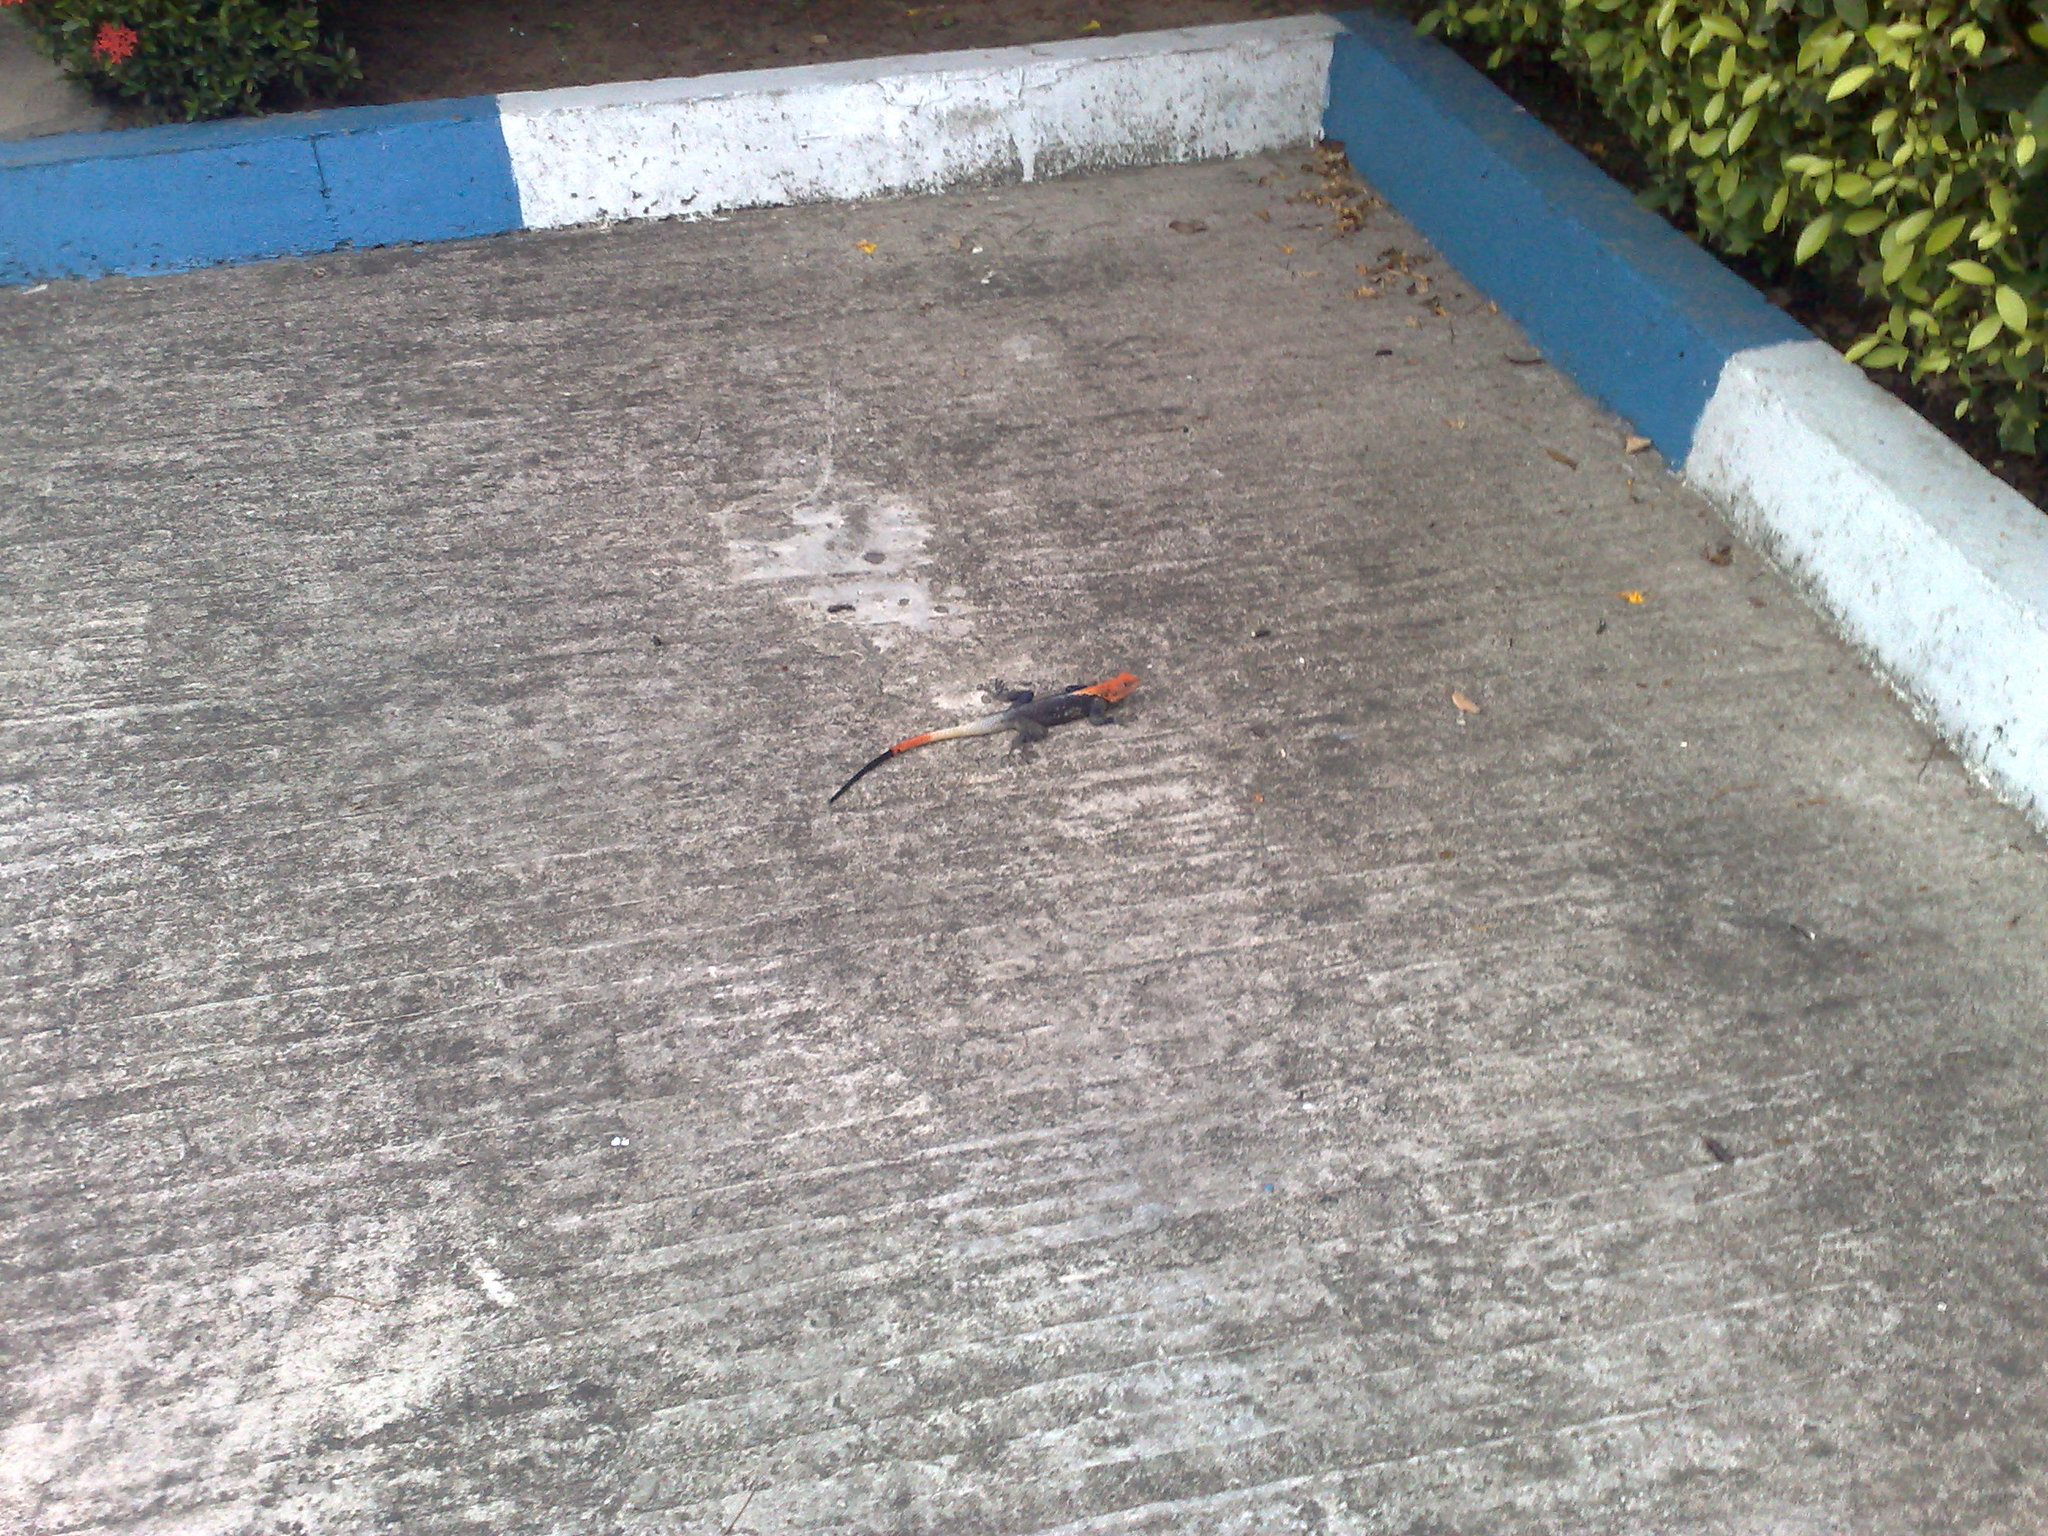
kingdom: Animalia
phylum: Chordata
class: Squamata
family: Agamidae
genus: Agama
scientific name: Agama agama
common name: Common agama
